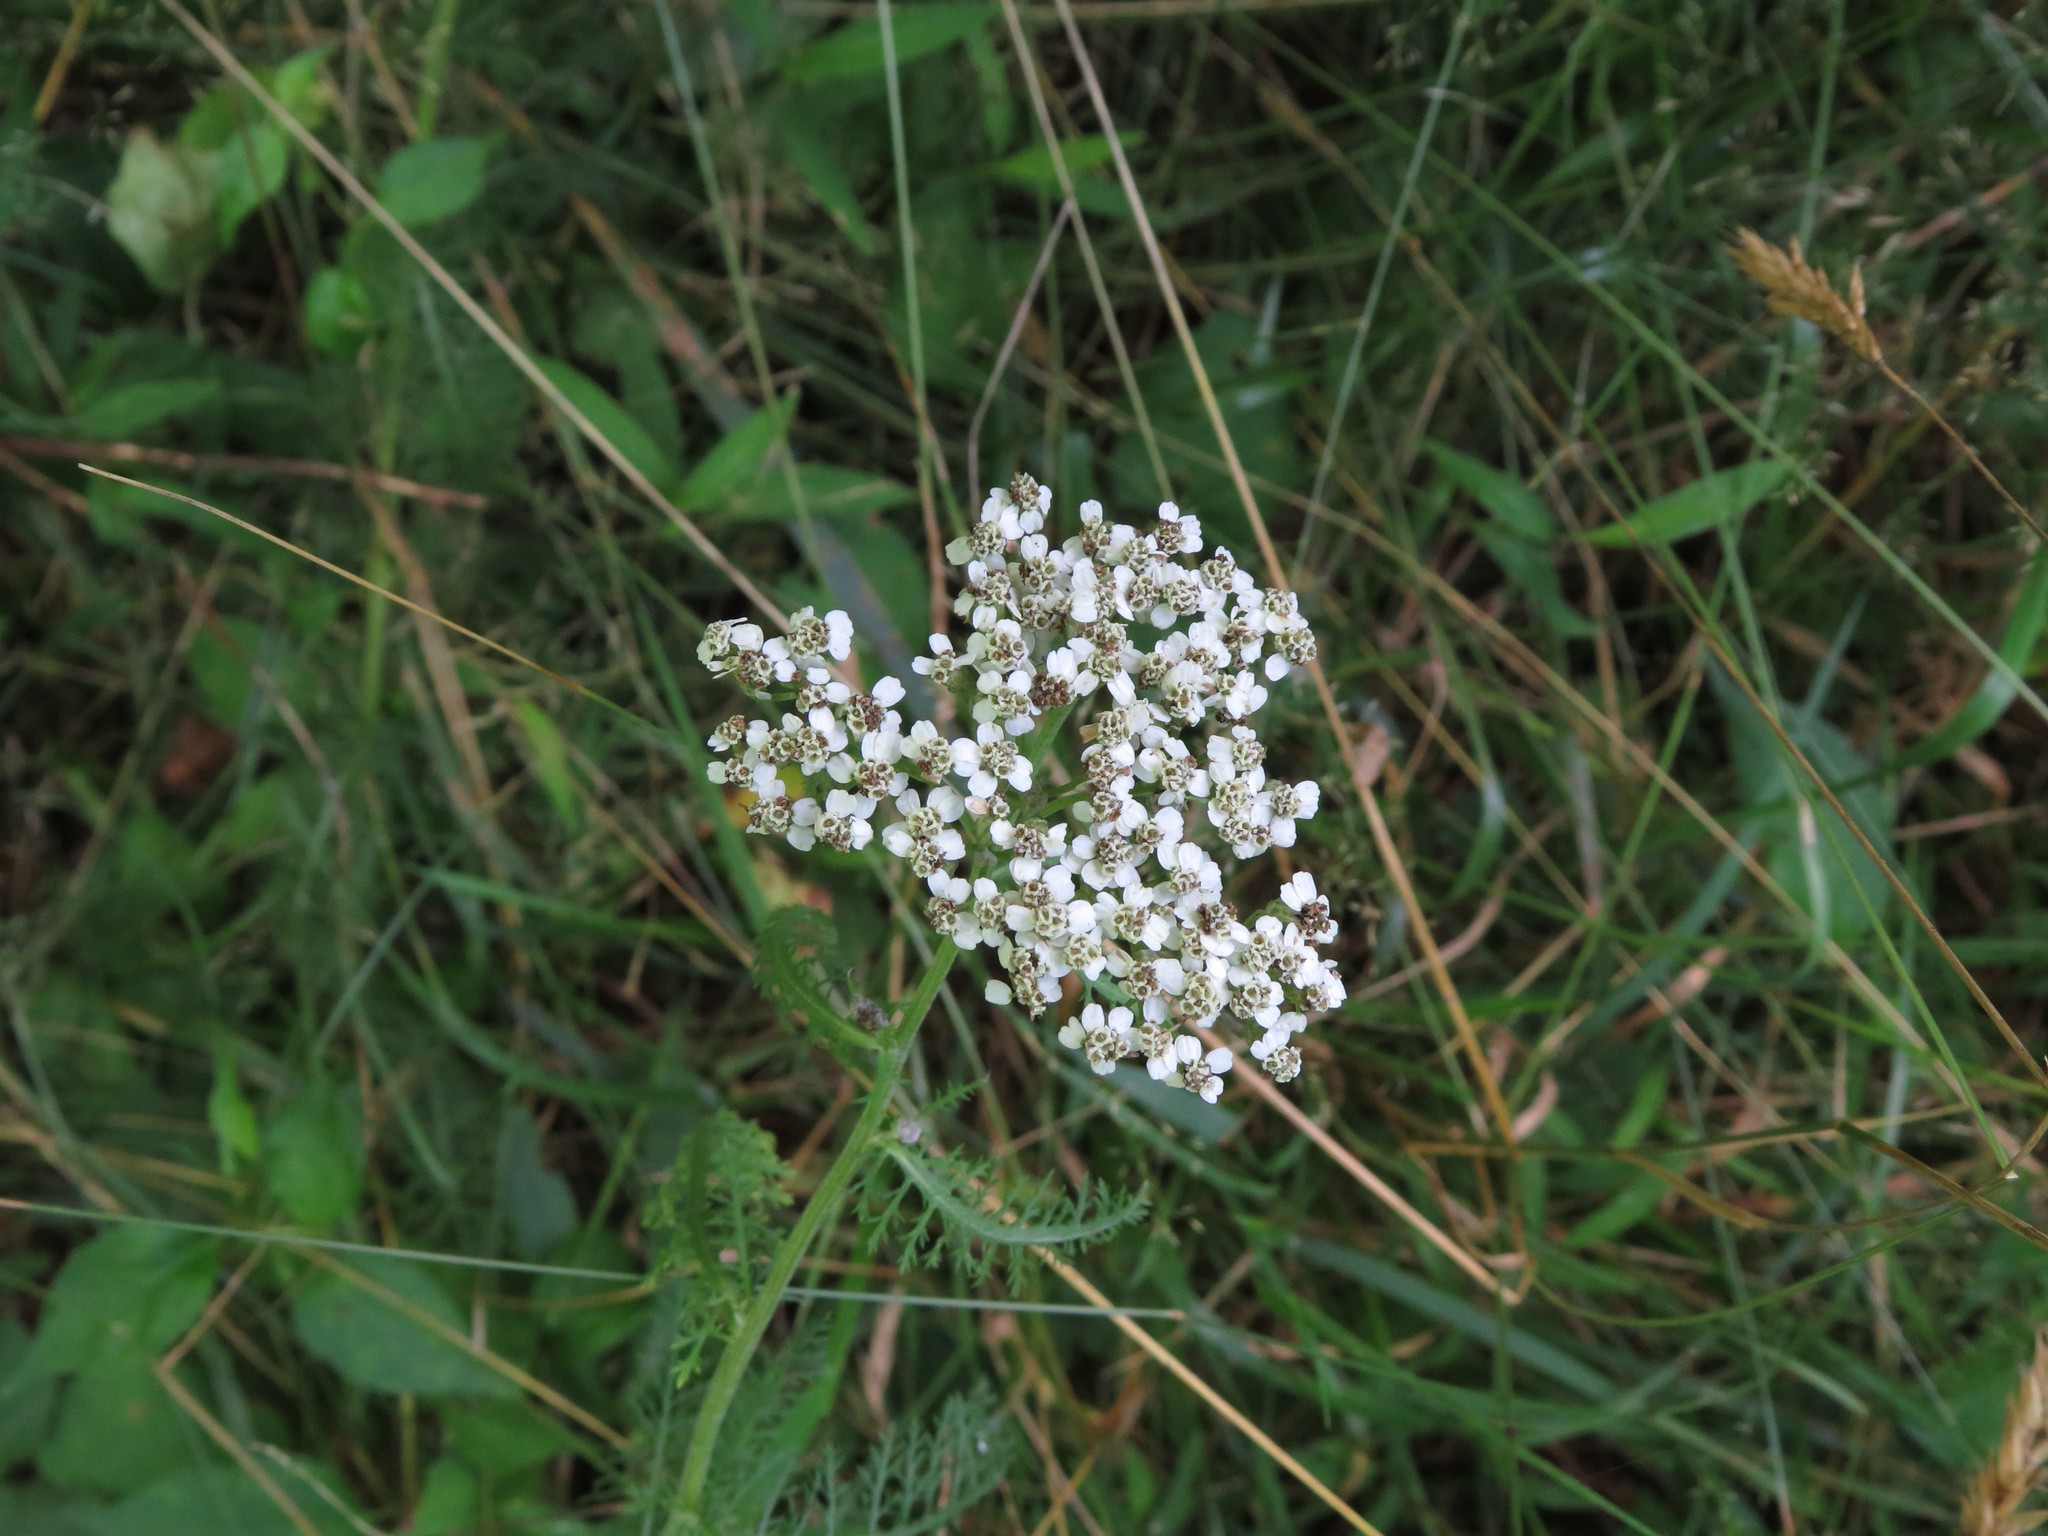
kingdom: Plantae
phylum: Tracheophyta
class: Magnoliopsida
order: Asterales
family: Asteraceae
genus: Achillea
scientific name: Achillea millefolium
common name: Yarrow
